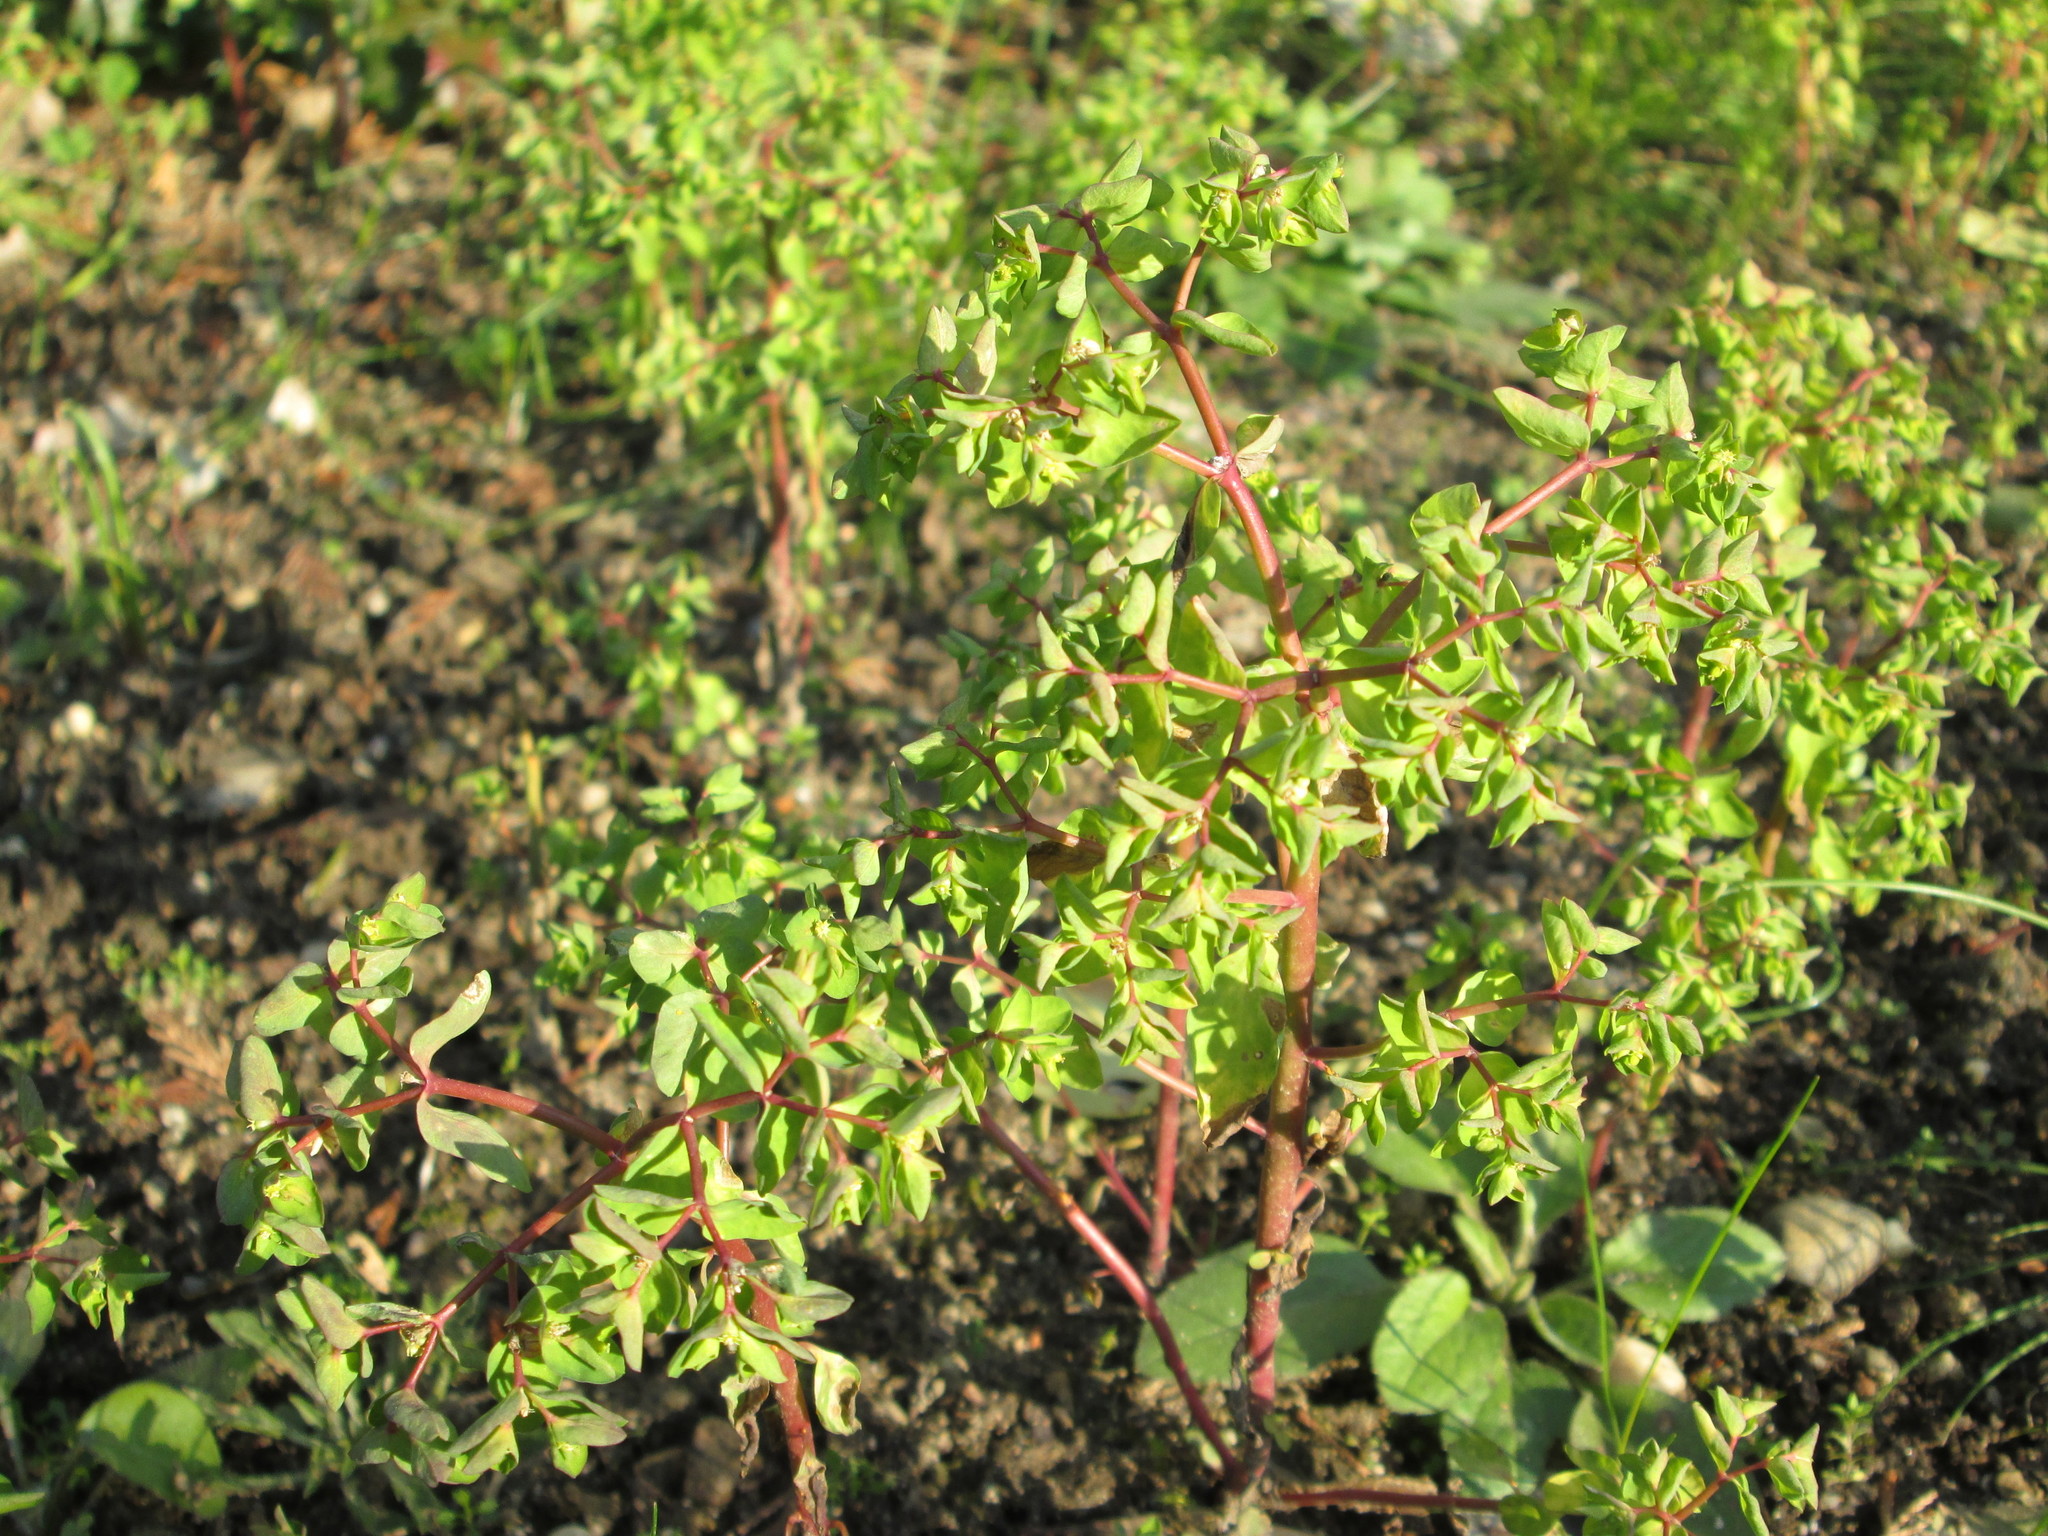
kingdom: Plantae
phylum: Tracheophyta
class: Magnoliopsida
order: Malpighiales
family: Euphorbiaceae
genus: Euphorbia
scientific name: Euphorbia peplus
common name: Petty spurge
